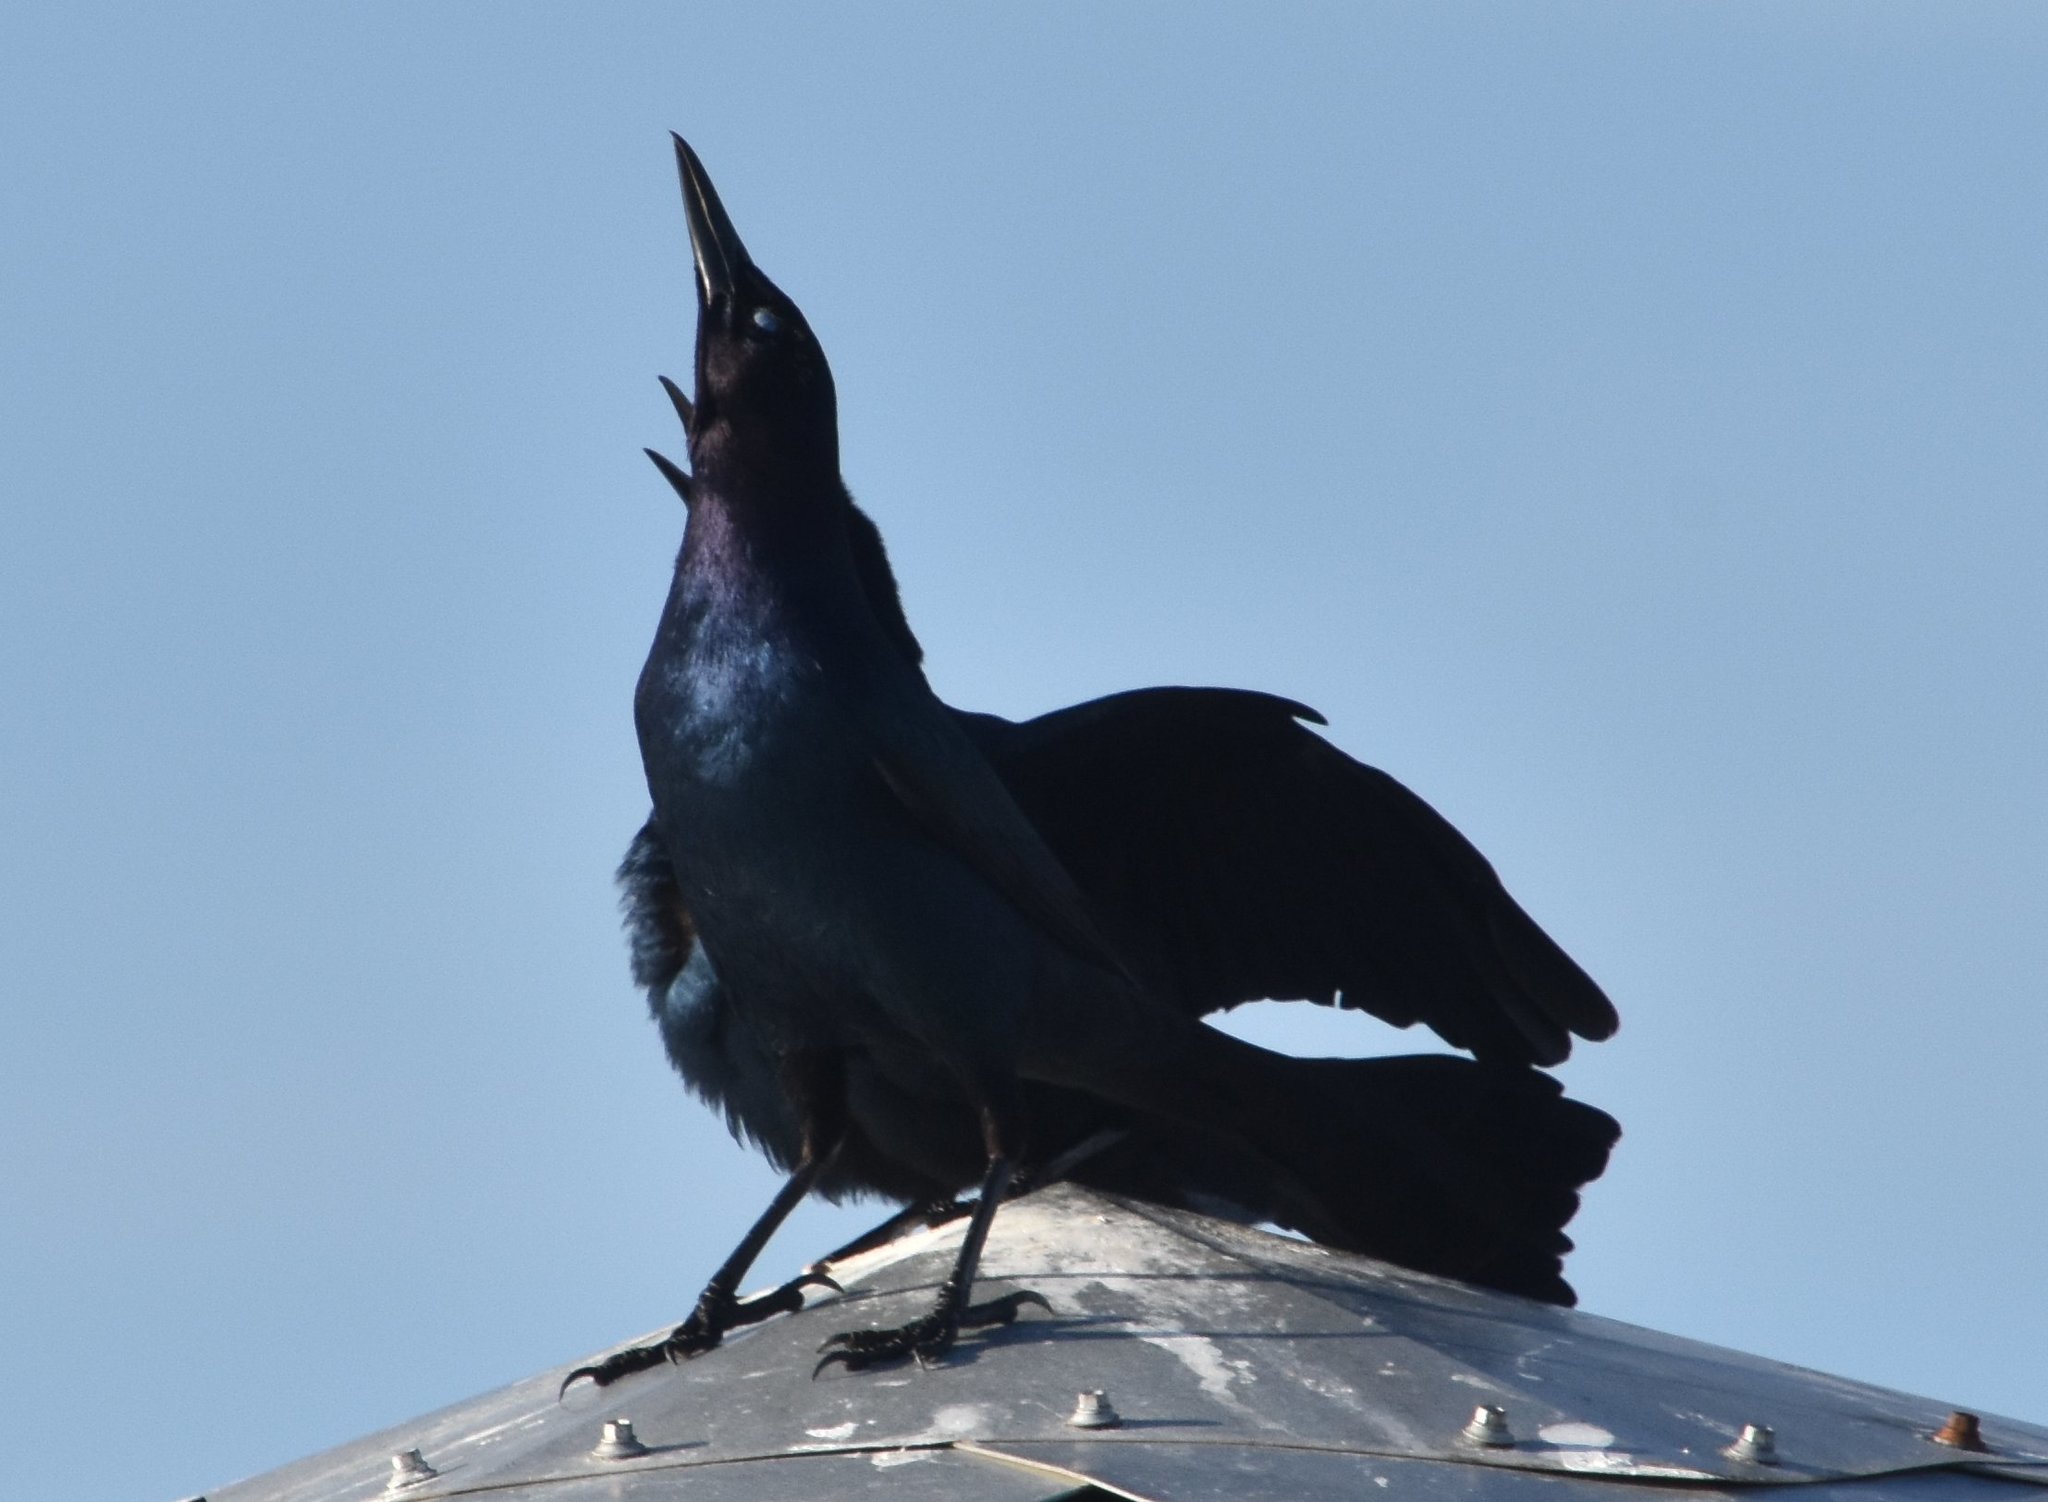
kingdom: Animalia
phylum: Chordata
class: Aves
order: Passeriformes
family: Icteridae
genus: Quiscalus
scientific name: Quiscalus major
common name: Boat-tailed grackle
